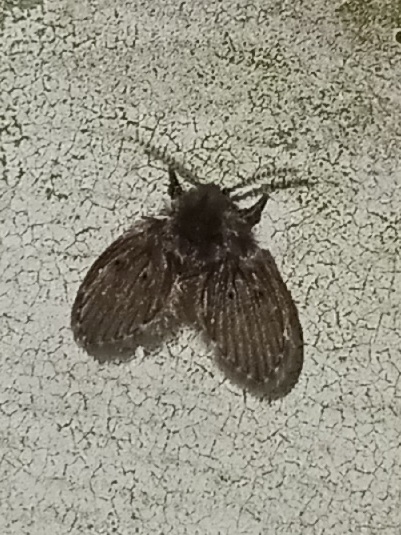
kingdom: Animalia
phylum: Arthropoda
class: Insecta
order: Diptera
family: Psychodidae
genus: Clogmia
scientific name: Clogmia albipunctatus
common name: White-spotted moth fly
